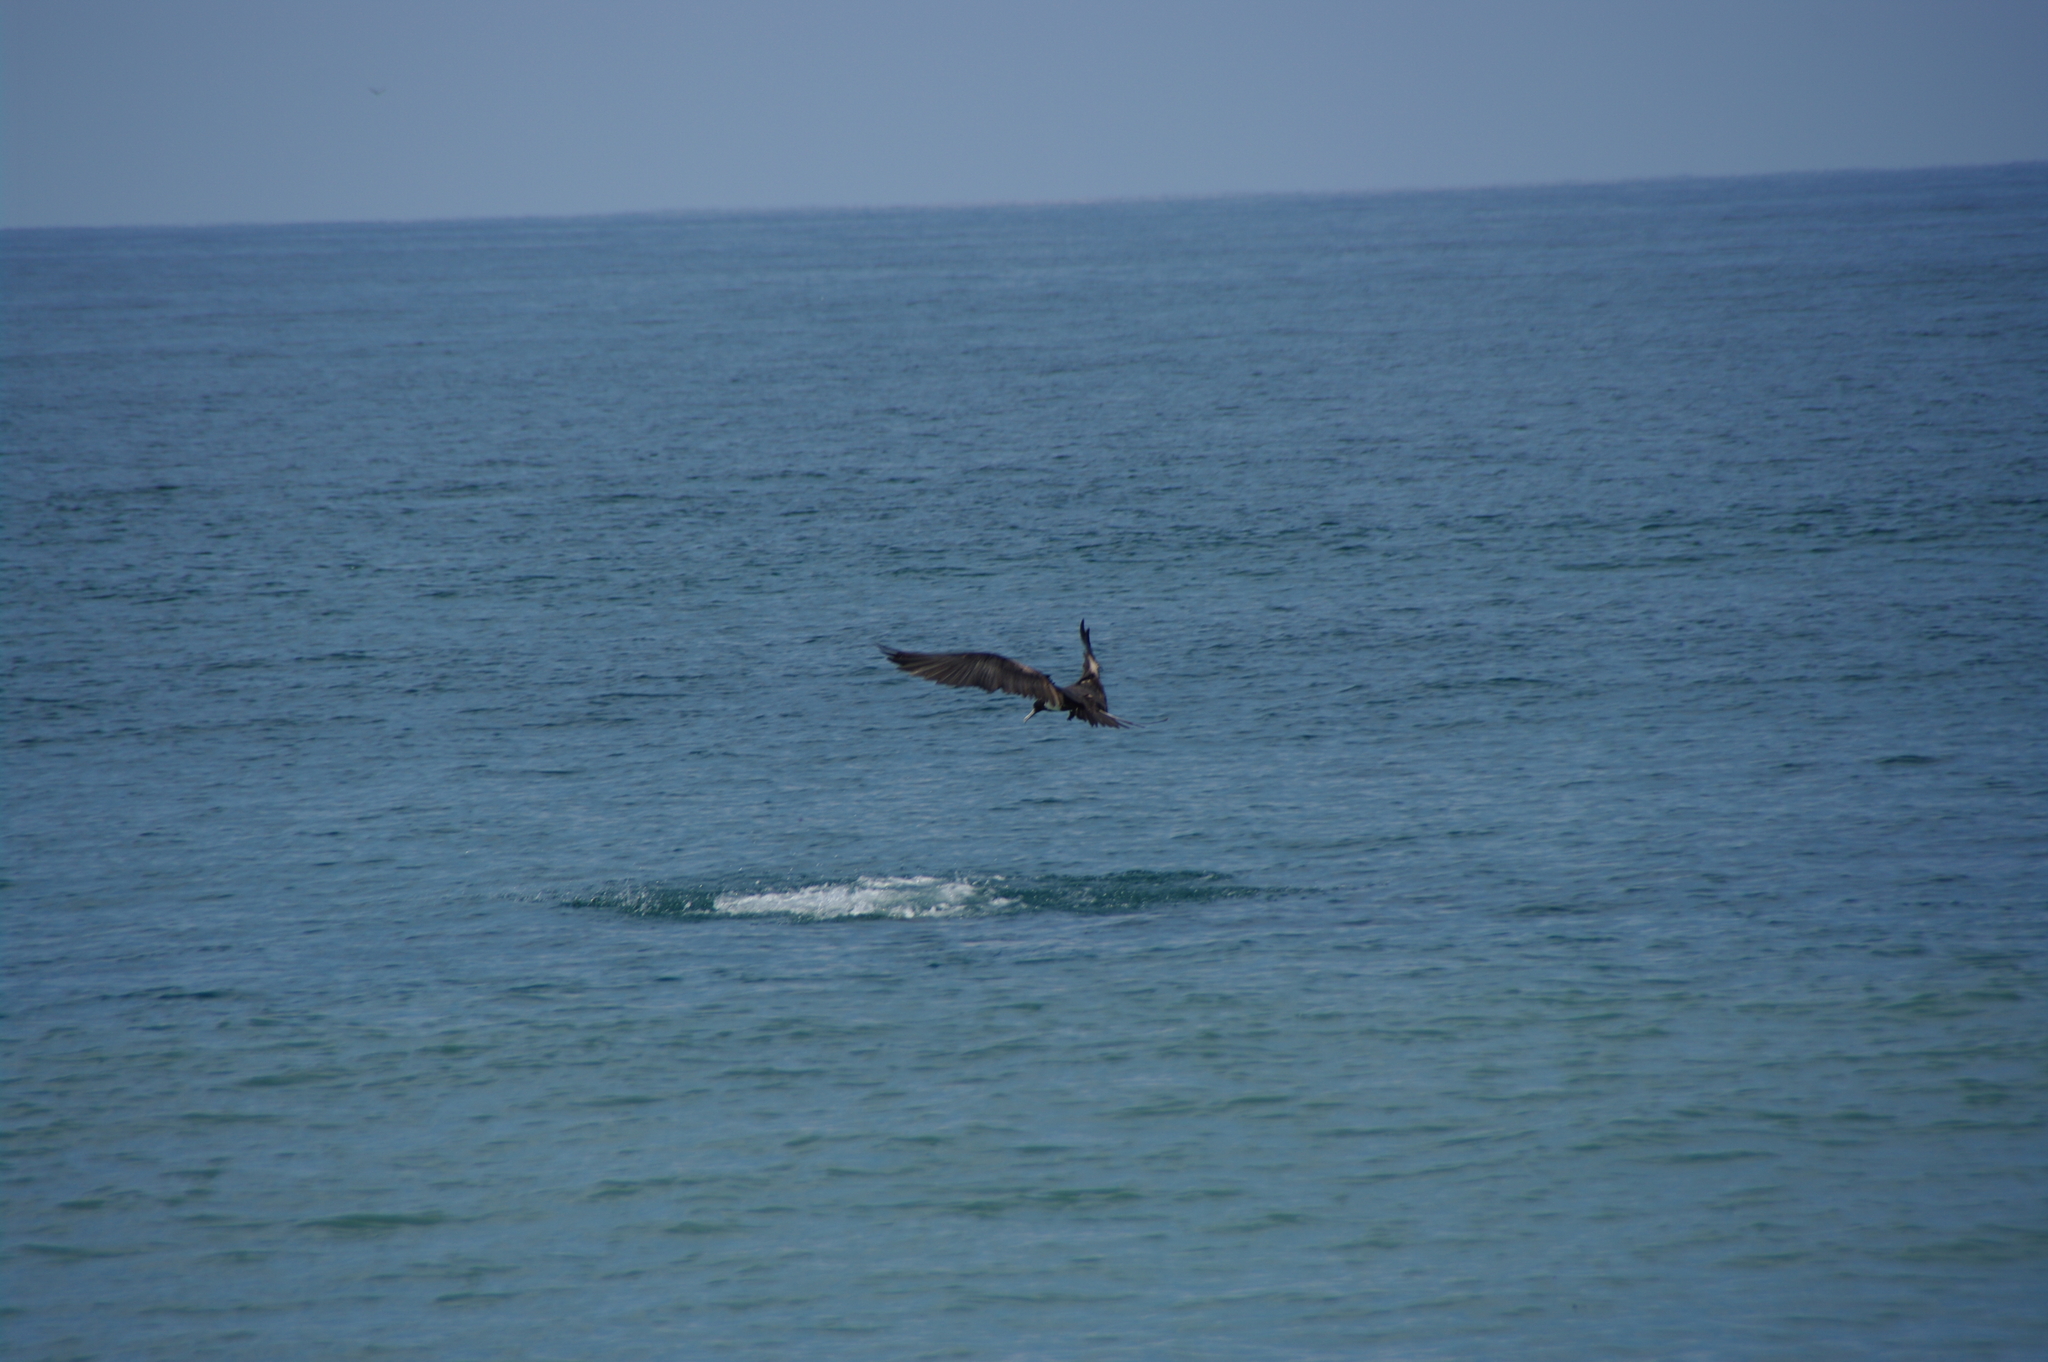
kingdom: Animalia
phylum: Chordata
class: Aves
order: Suliformes
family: Fregatidae
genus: Fregata
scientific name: Fregata magnificens
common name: Magnificent frigatebird
